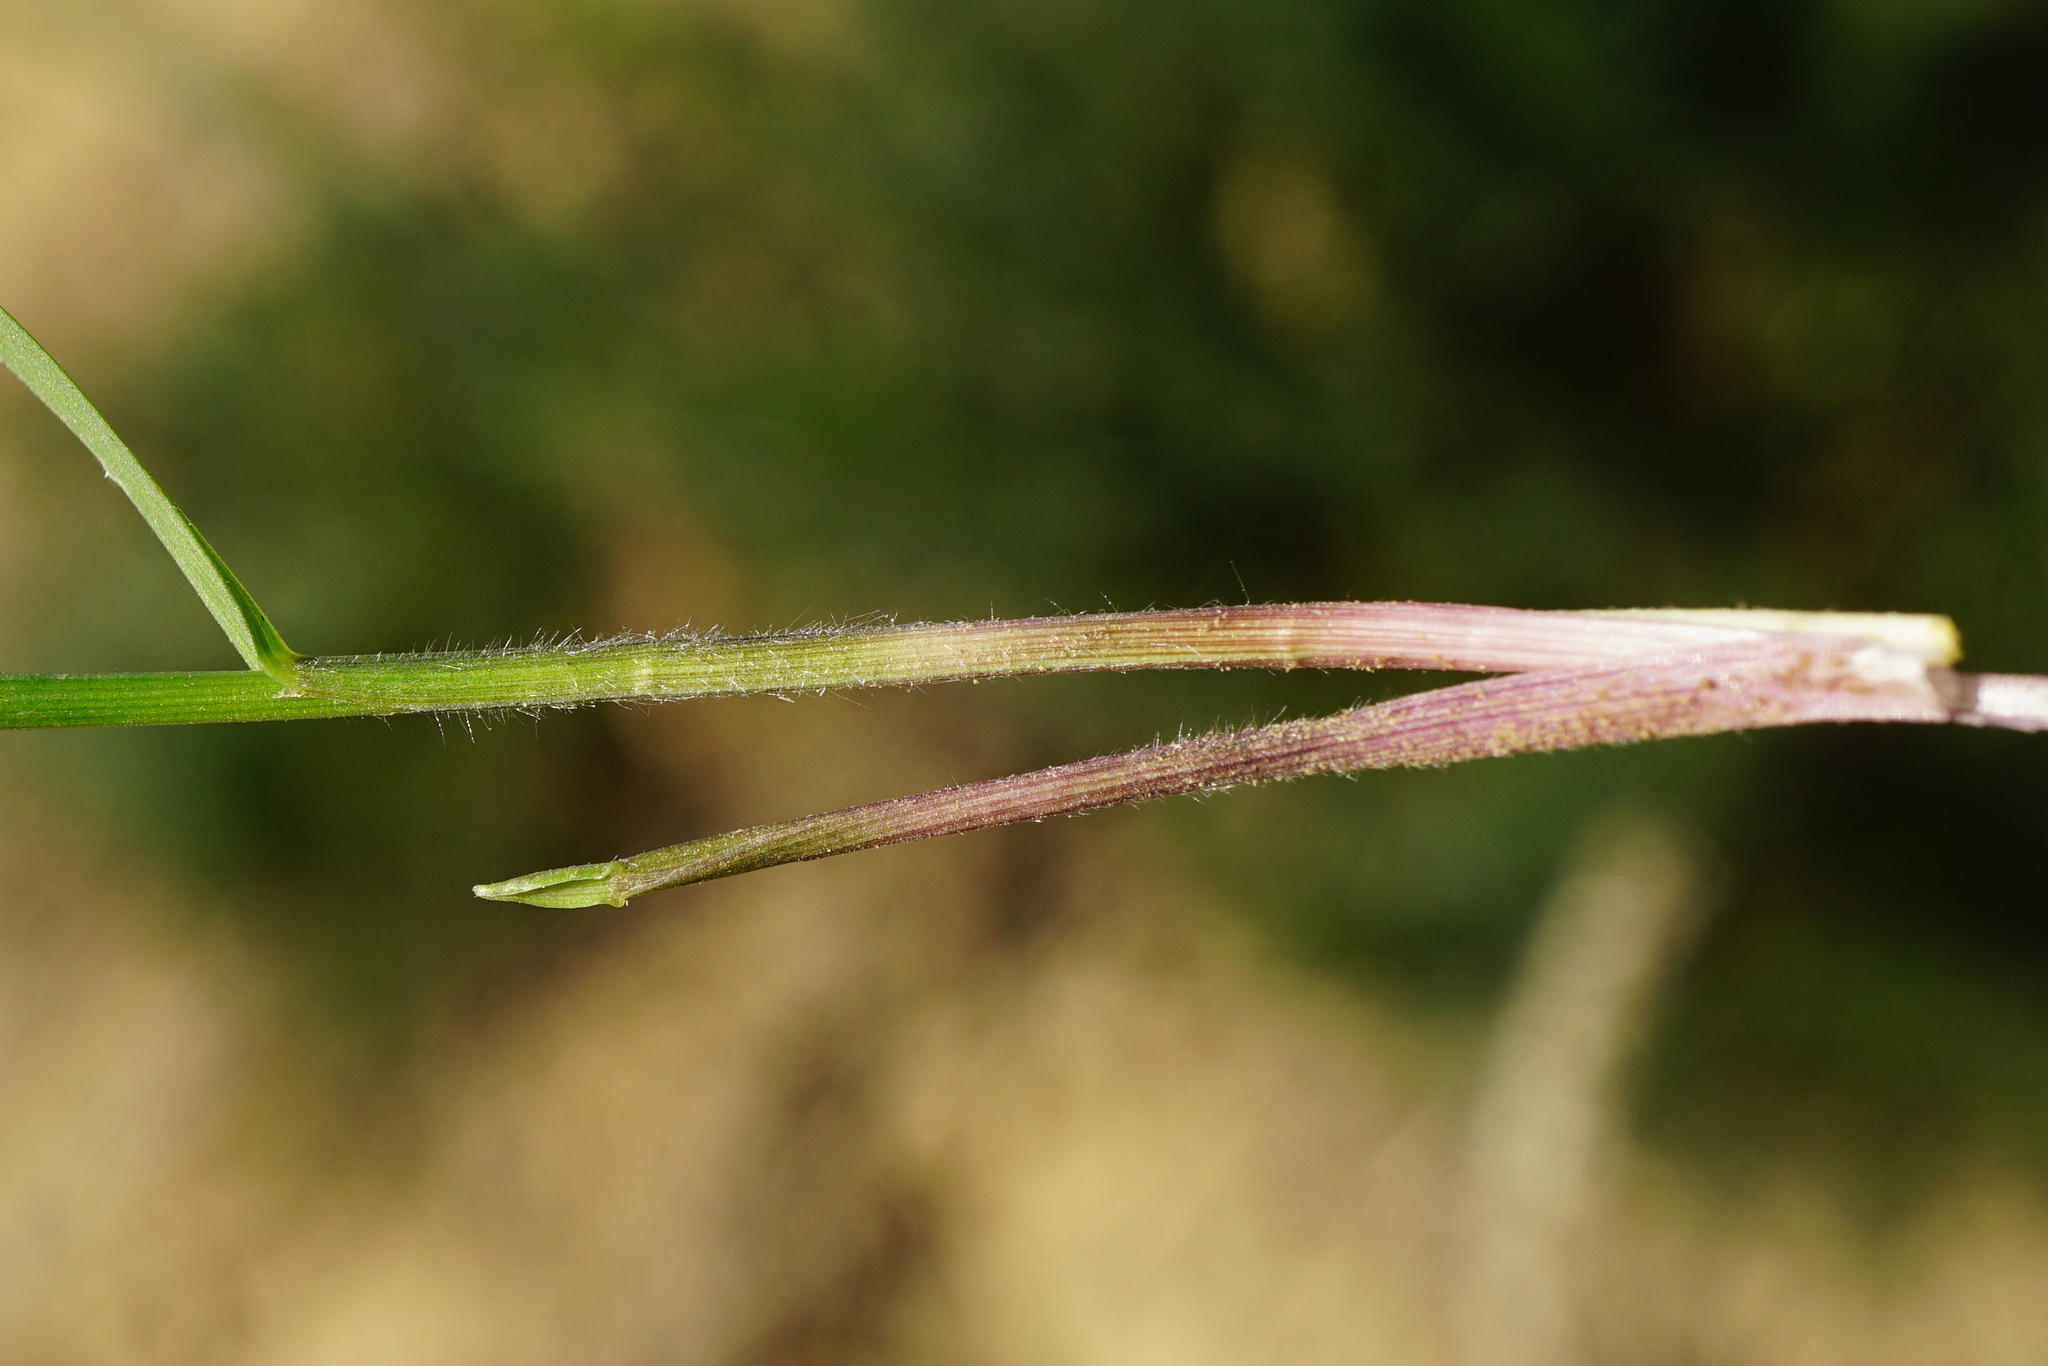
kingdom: Plantae
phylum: Tracheophyta
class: Liliopsida
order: Poales
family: Poaceae
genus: Melica
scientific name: Melica transsilvanica
